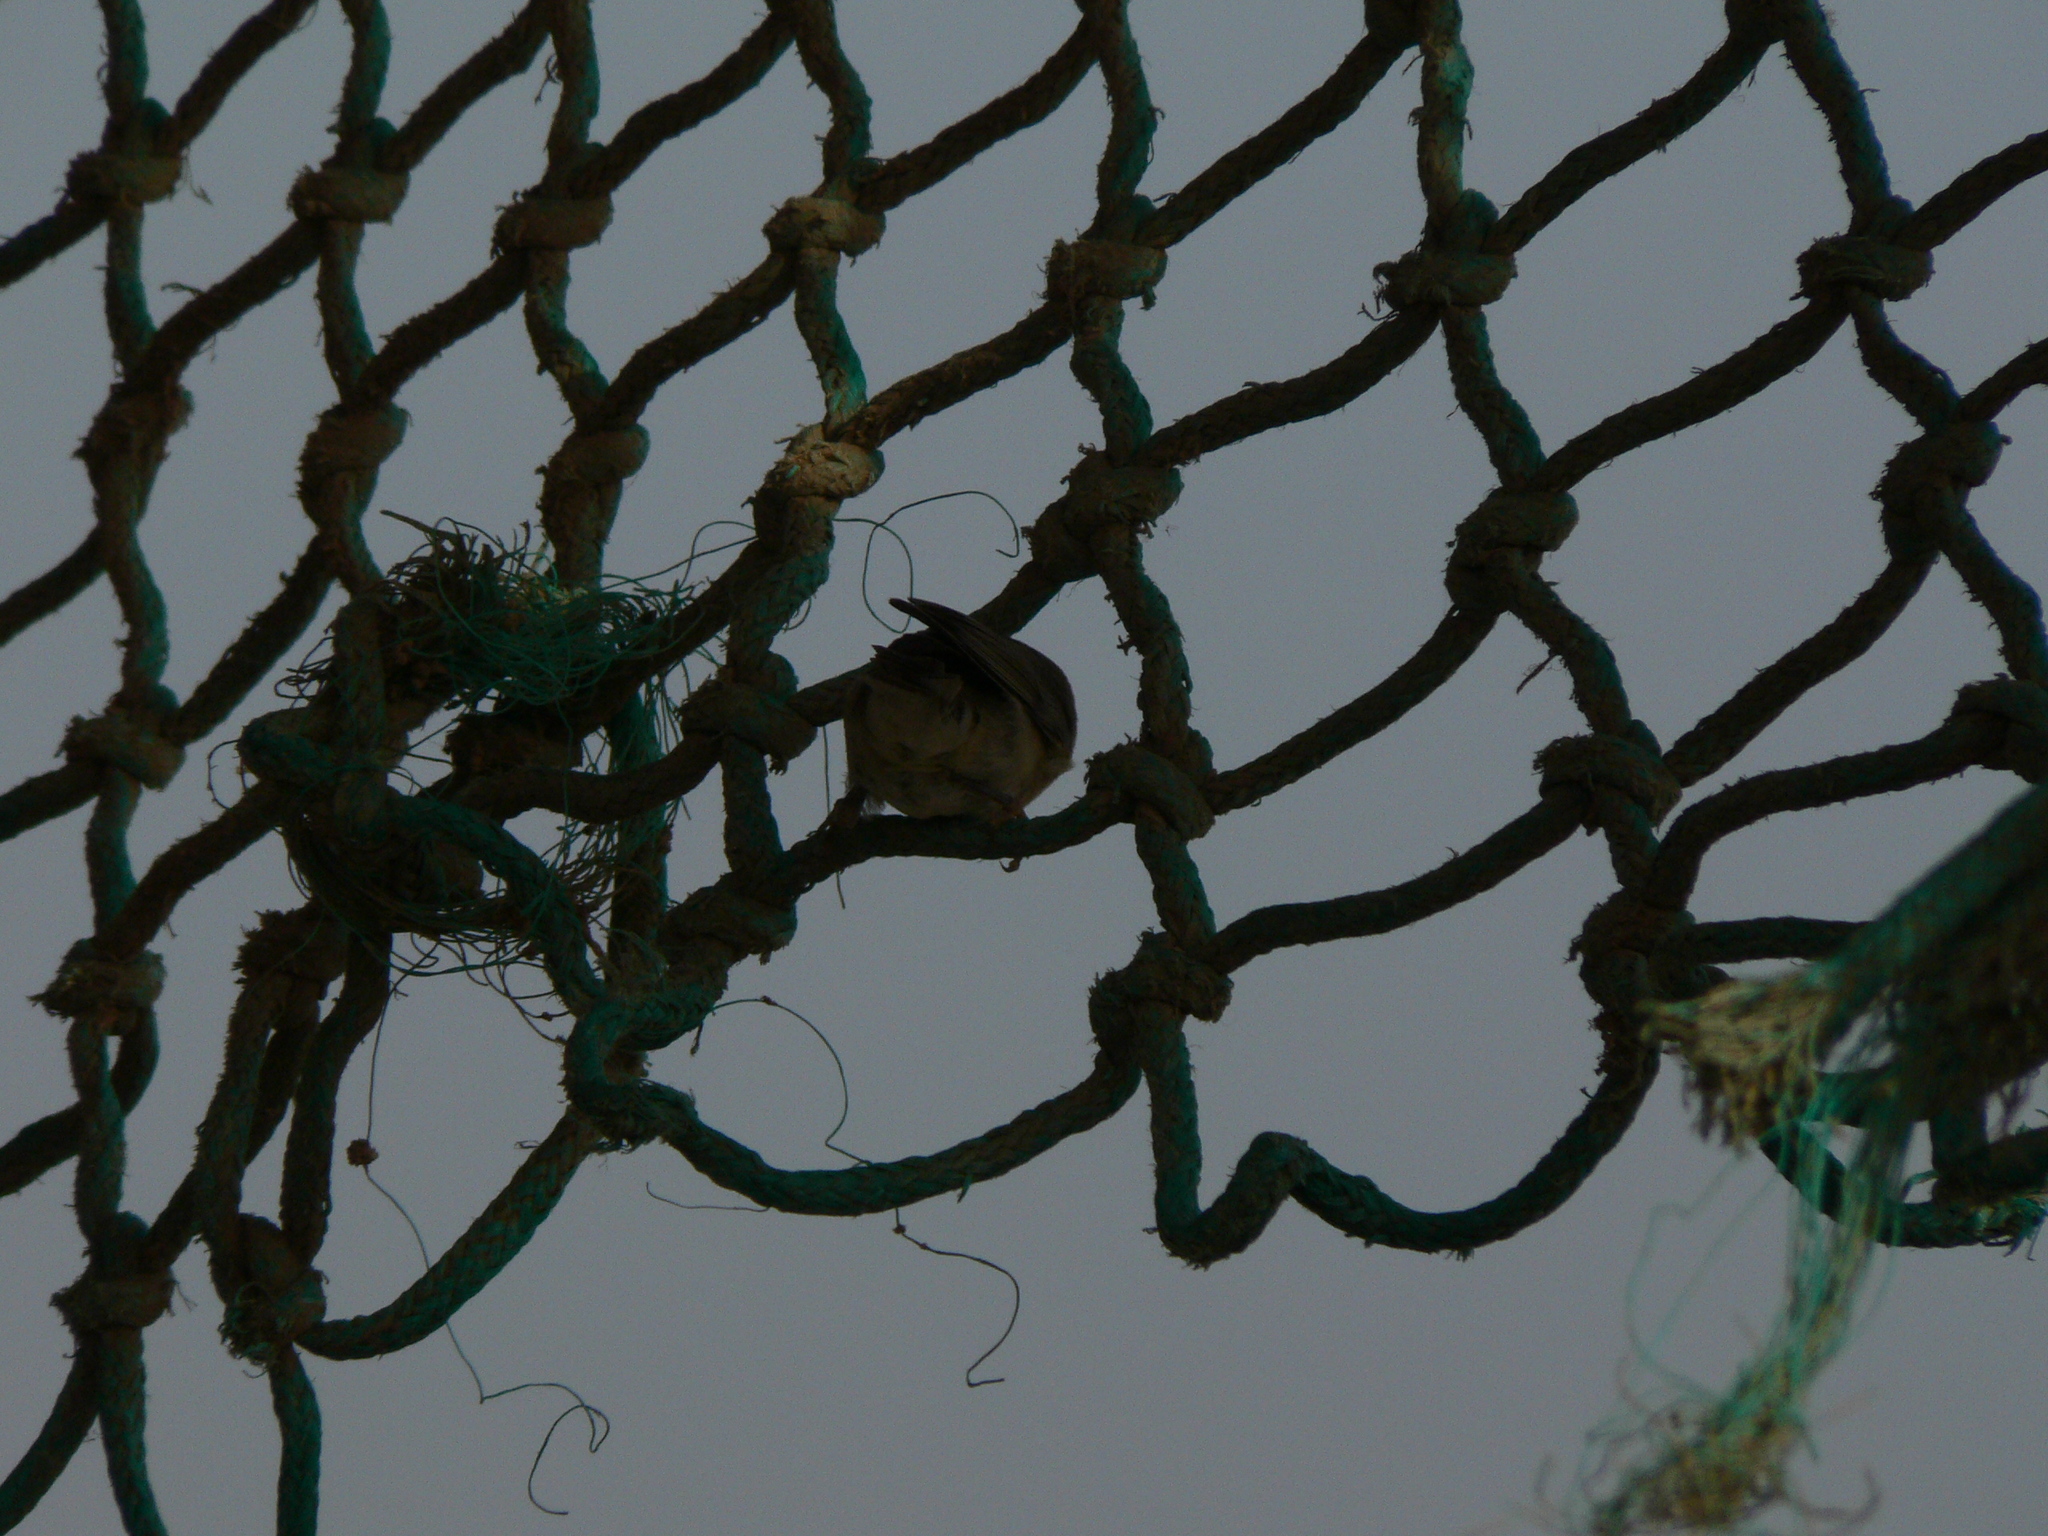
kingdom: Animalia
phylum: Chordata
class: Aves
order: Passeriformes
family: Phylloscopidae
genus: Phylloscopus
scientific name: Phylloscopus trochilus
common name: Willow warbler
